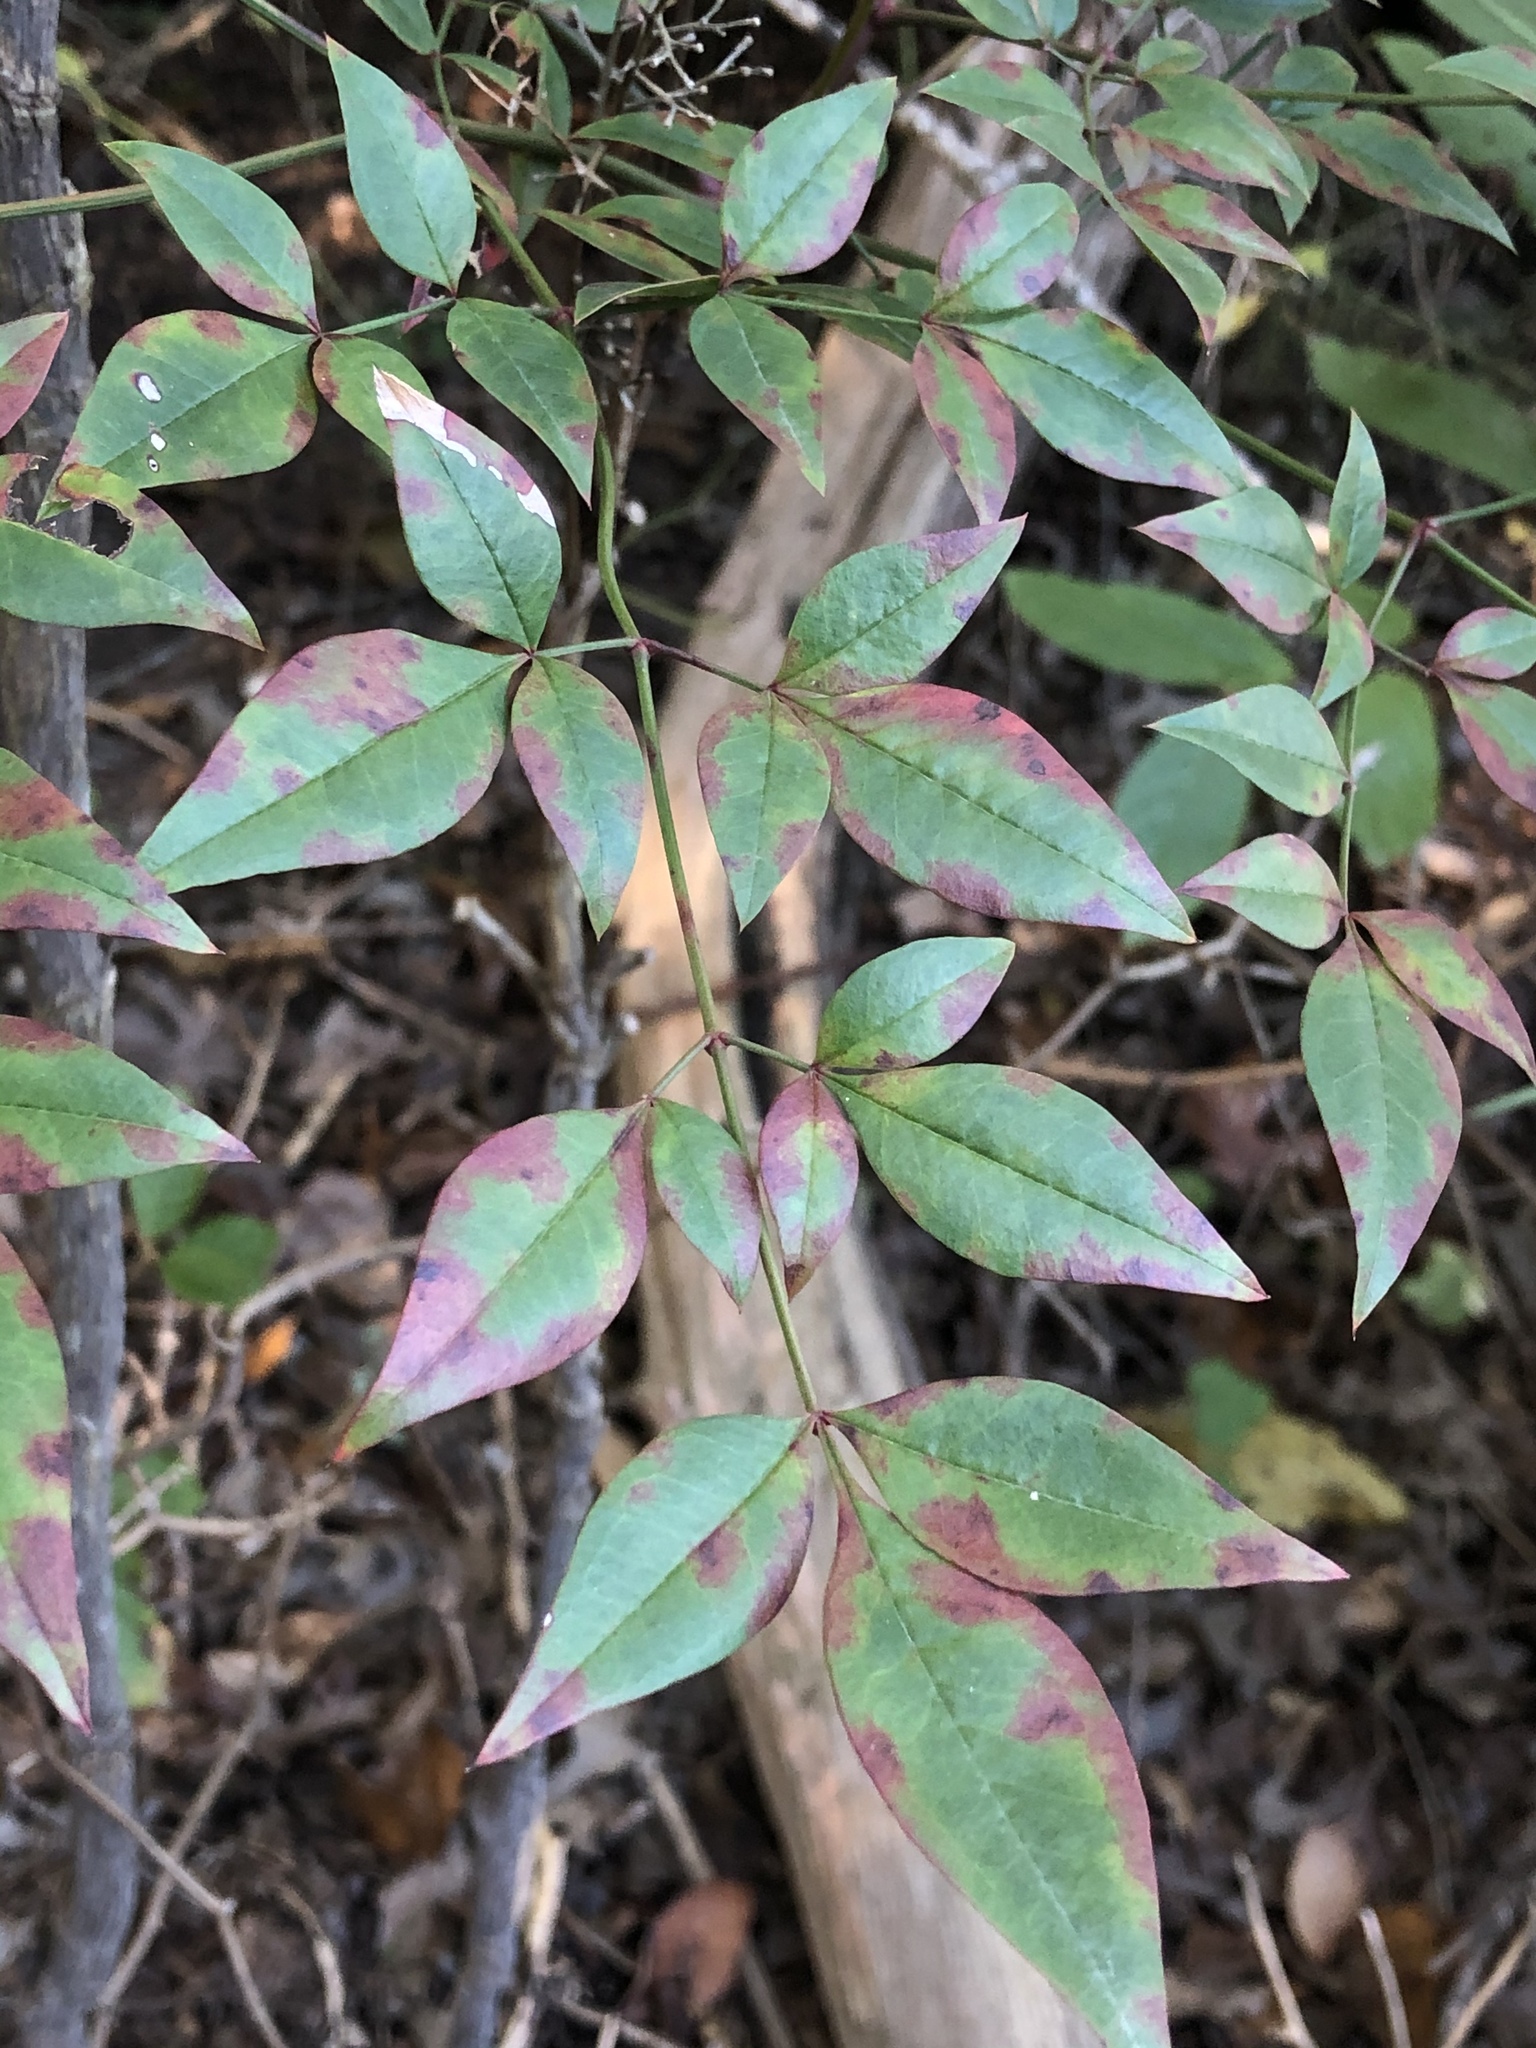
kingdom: Plantae
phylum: Tracheophyta
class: Magnoliopsida
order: Ranunculales
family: Berberidaceae
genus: Nandina
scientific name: Nandina domestica
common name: Sacred bamboo
